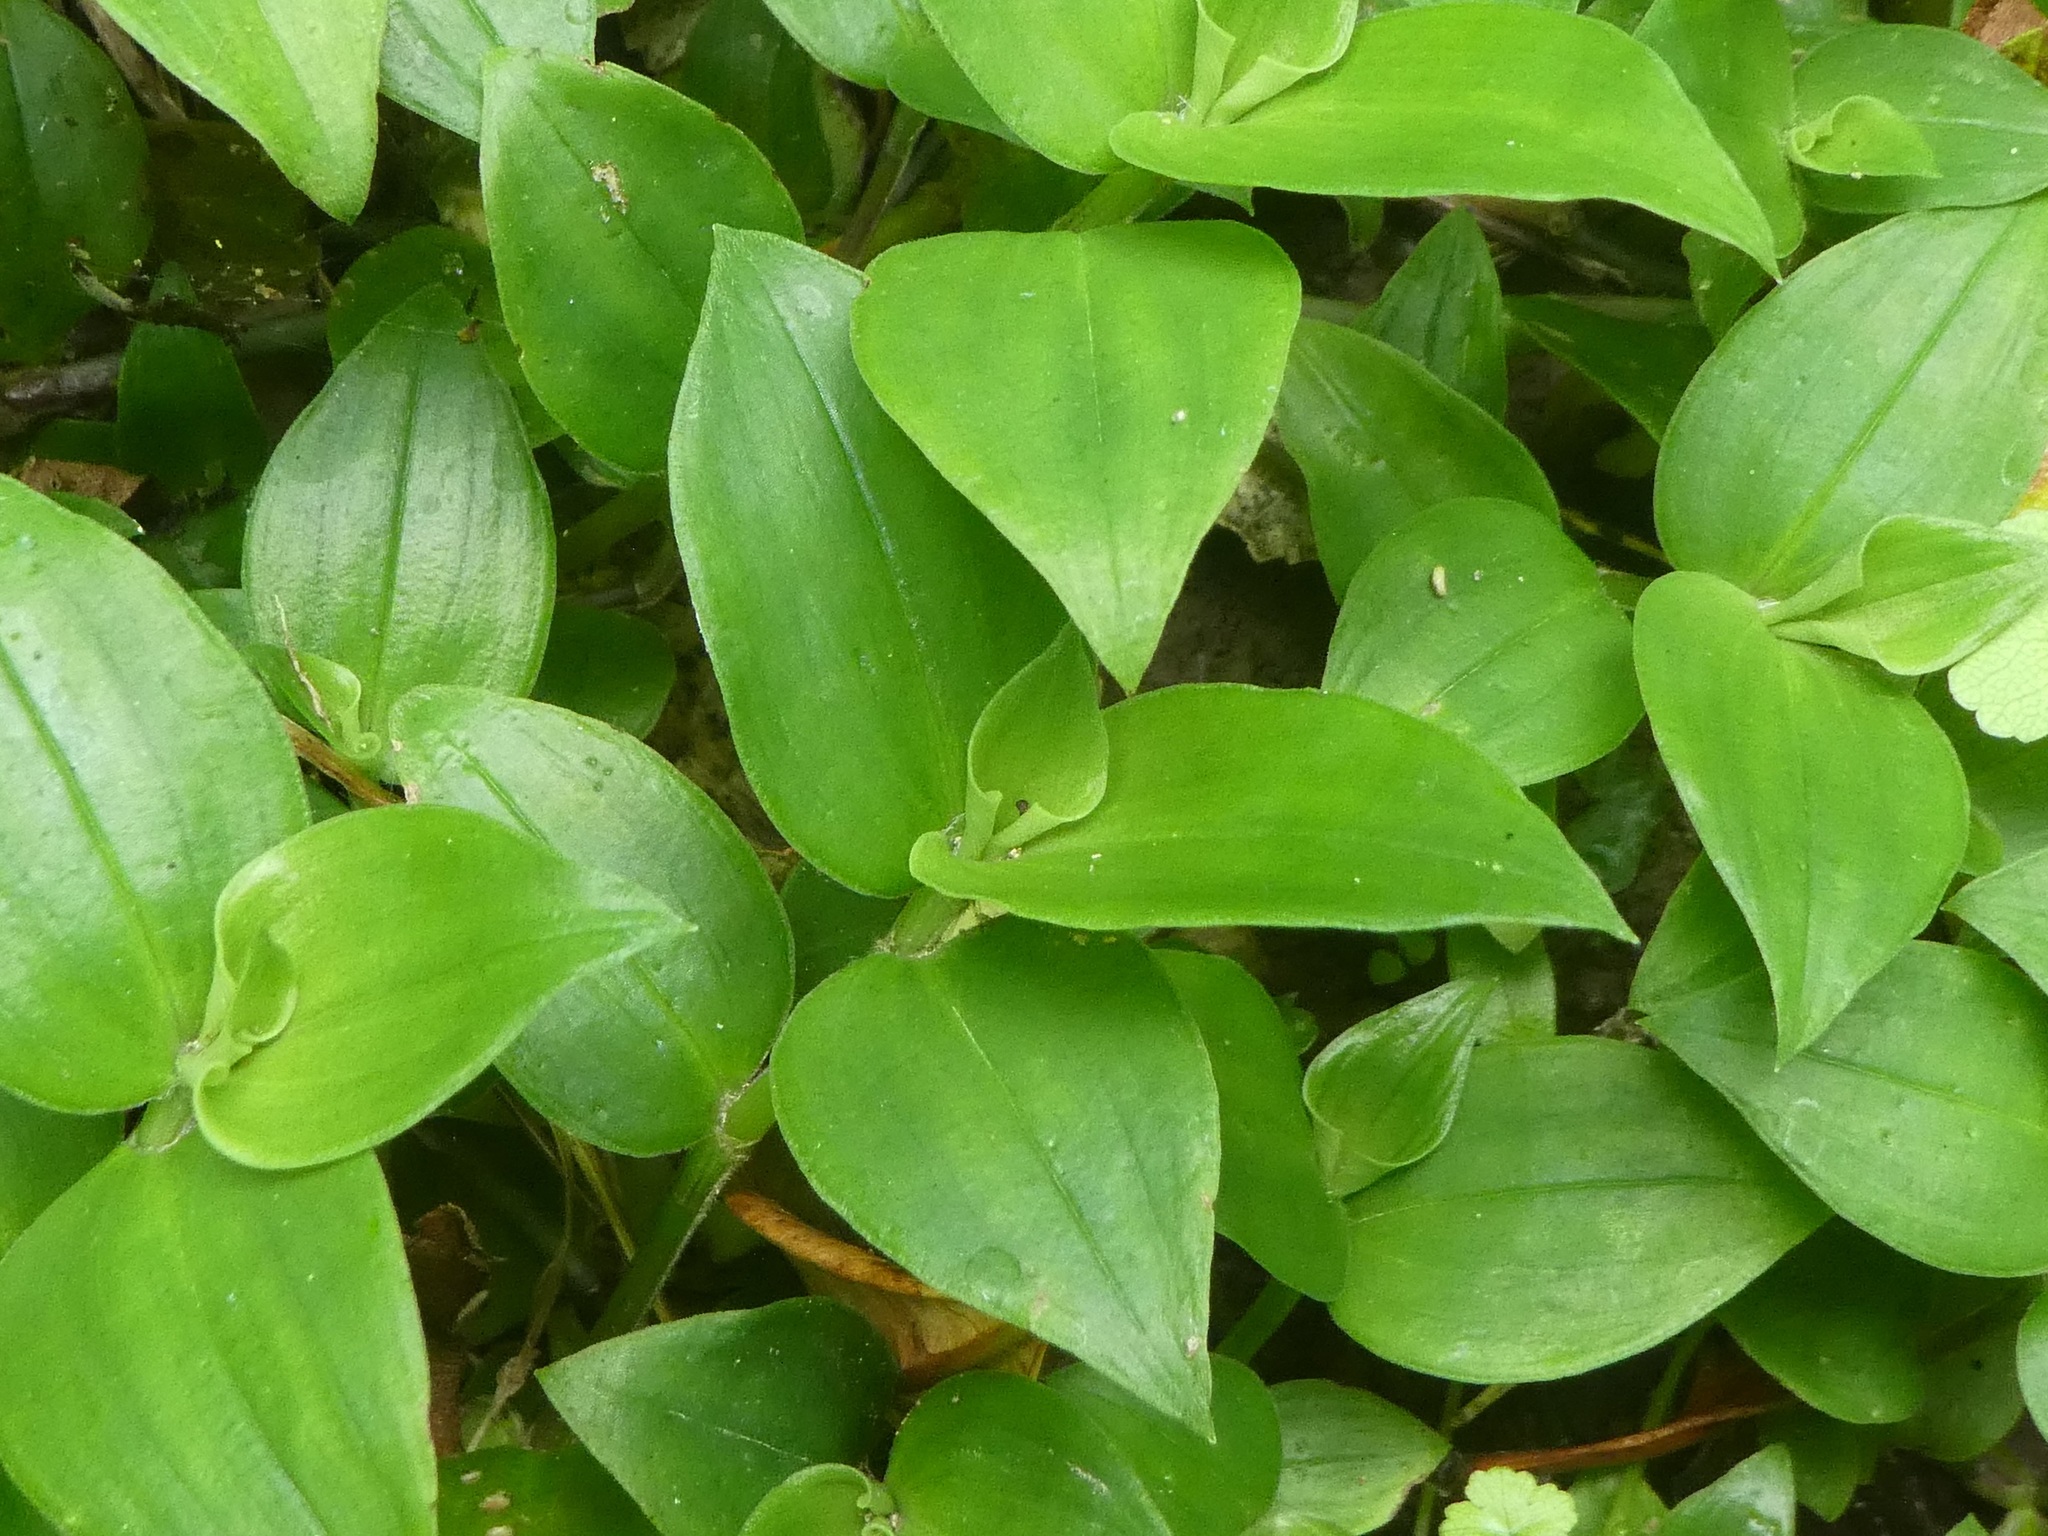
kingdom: Plantae
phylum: Tracheophyta
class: Liliopsida
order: Commelinales
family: Commelinaceae
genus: Tradescantia
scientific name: Tradescantia fluminensis
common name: Wandering-jew
